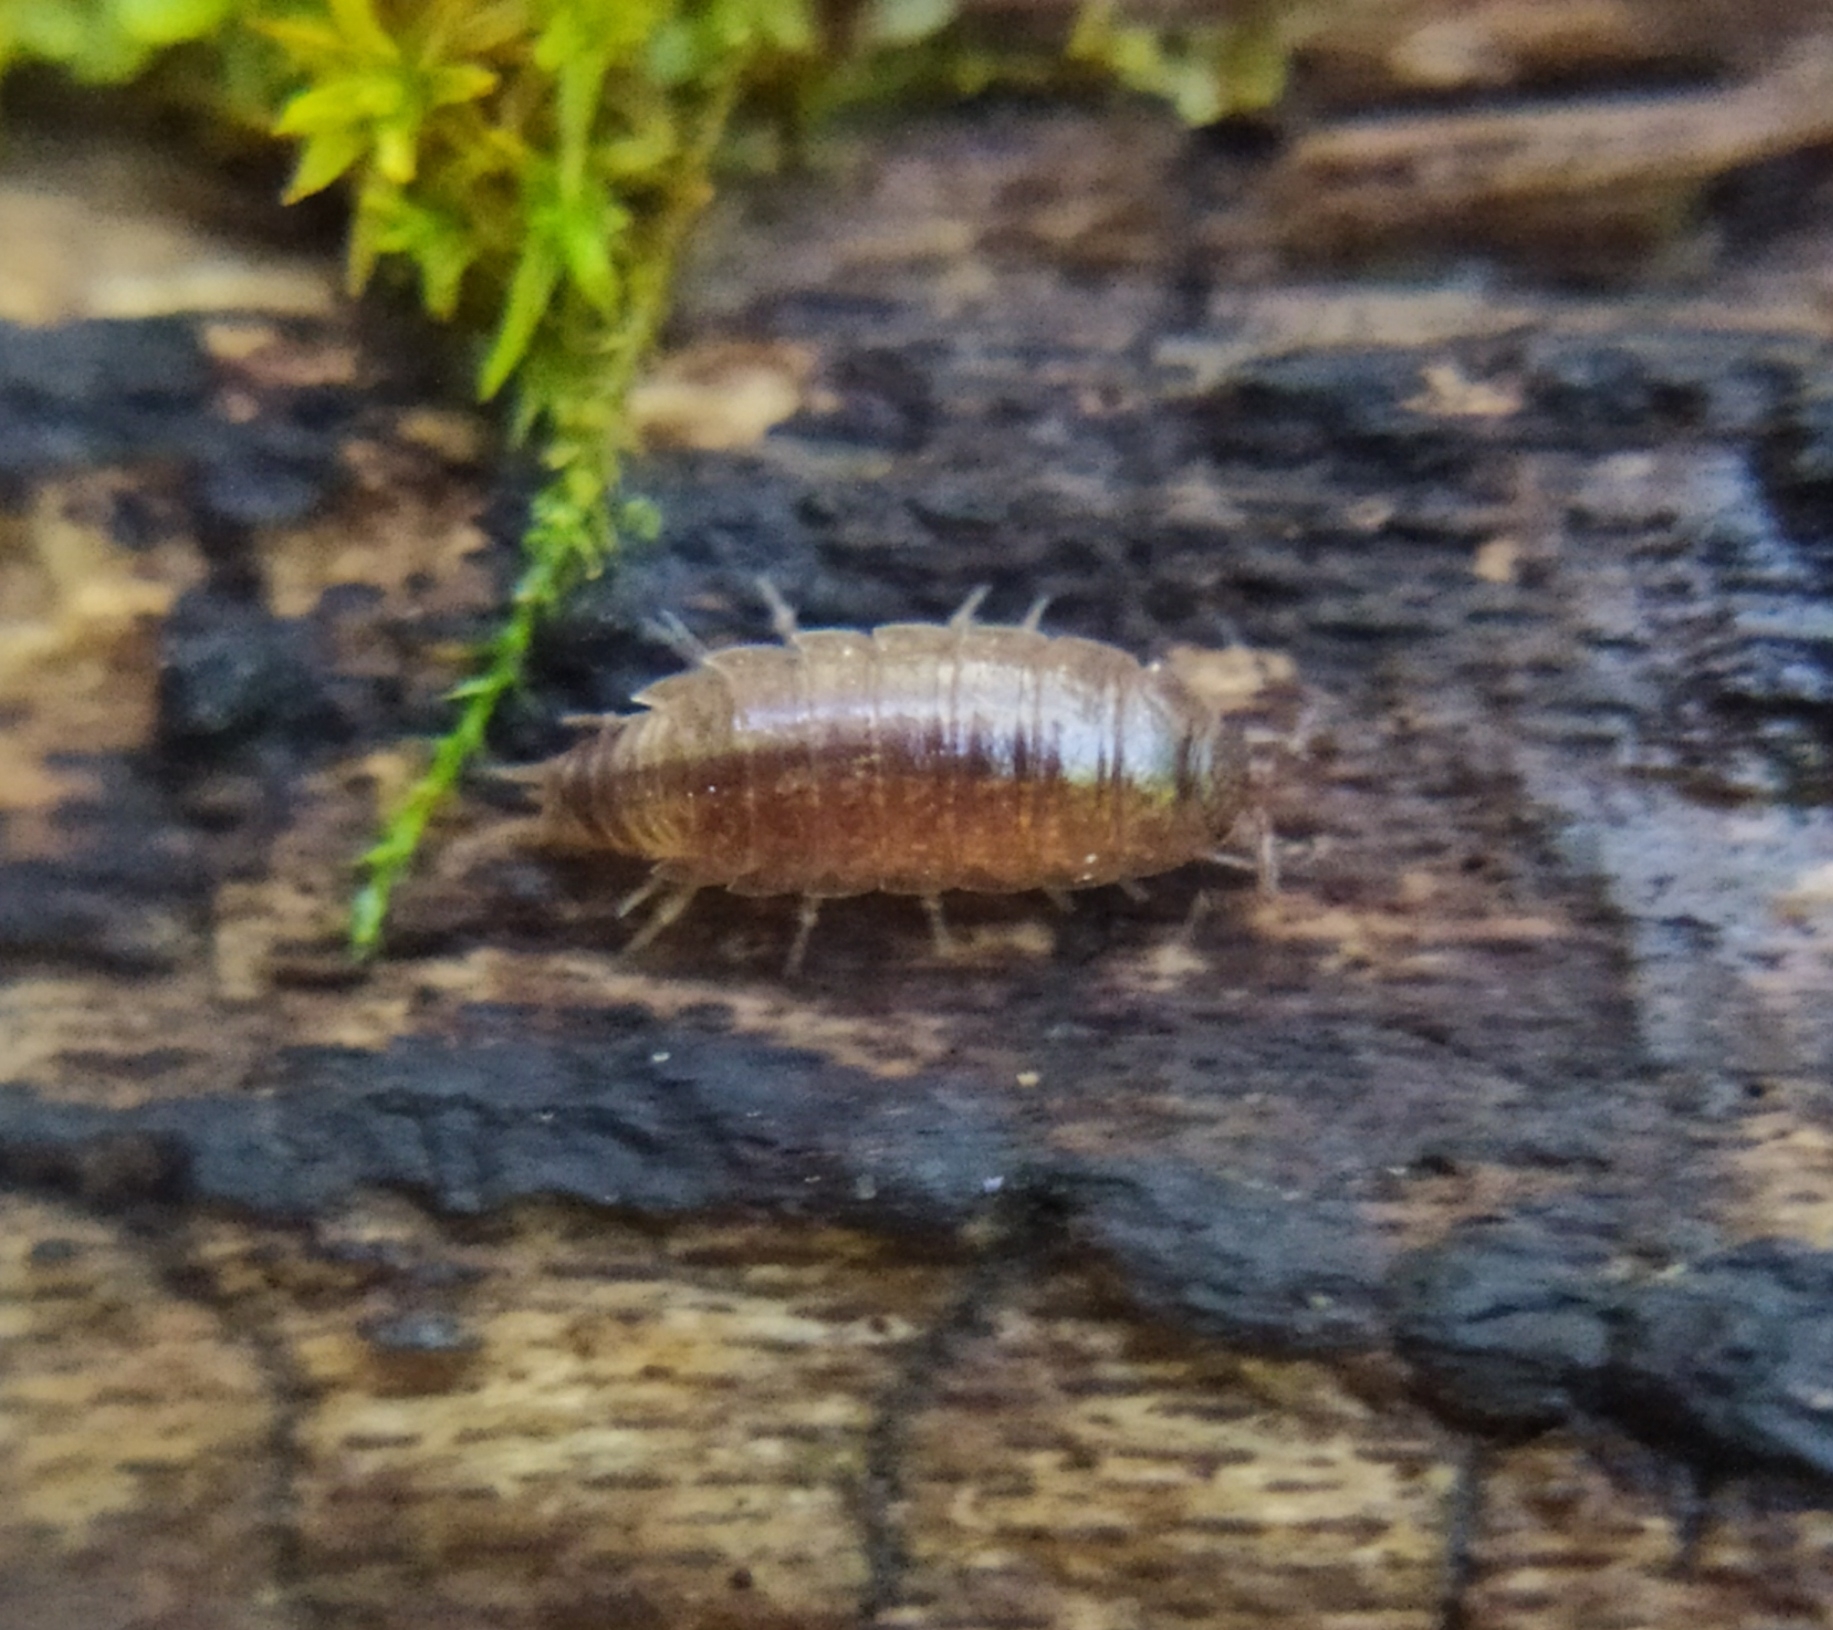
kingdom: Animalia
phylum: Arthropoda
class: Malacostraca
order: Isopoda
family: Trichoniscidae
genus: Hyloniscus
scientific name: Hyloniscus riparius
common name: Isopod
